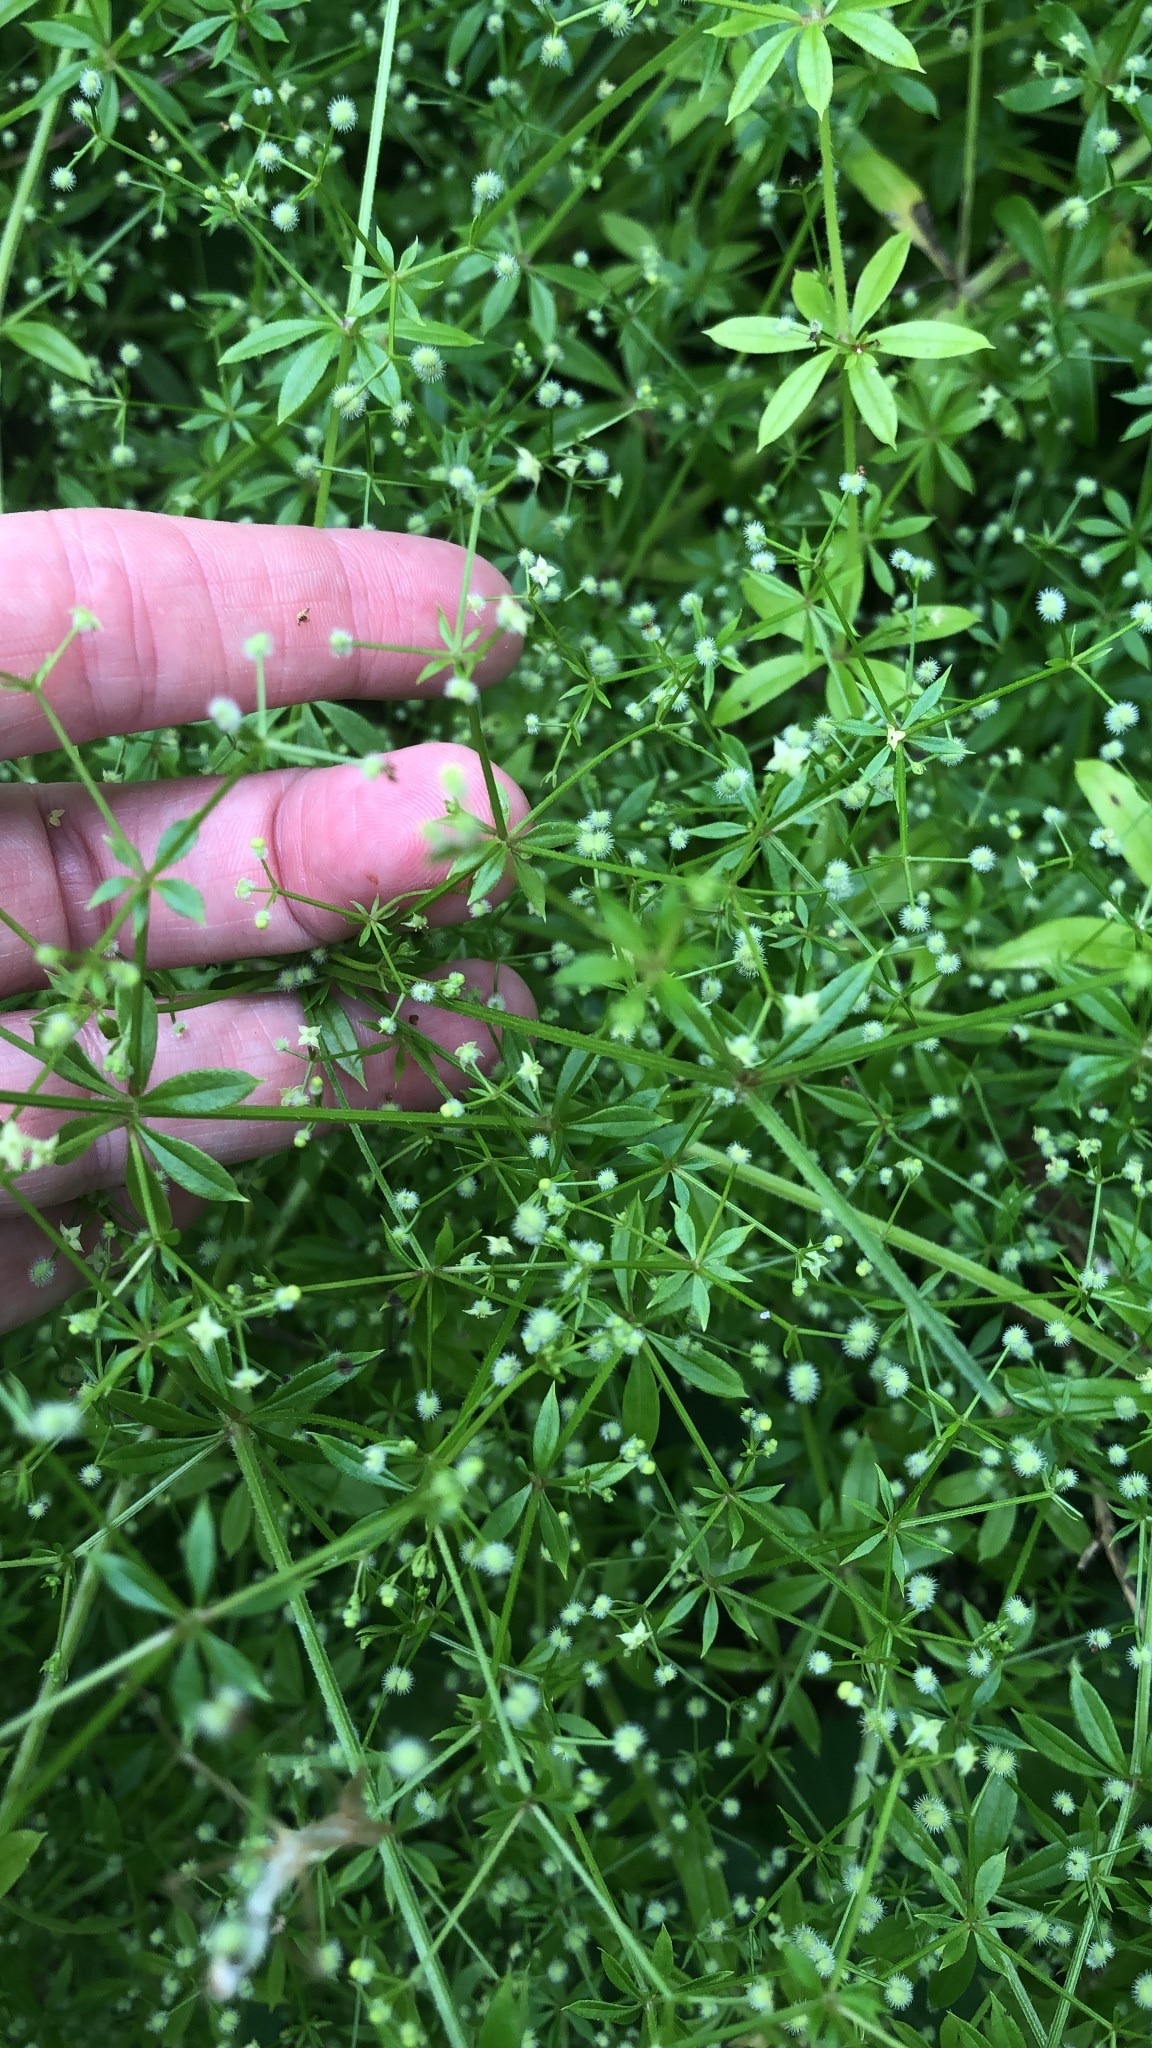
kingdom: Plantae
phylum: Tracheophyta
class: Magnoliopsida
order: Gentianales
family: Rubiaceae
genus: Galium
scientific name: Galium triflorum
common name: Fragrant bedstraw
